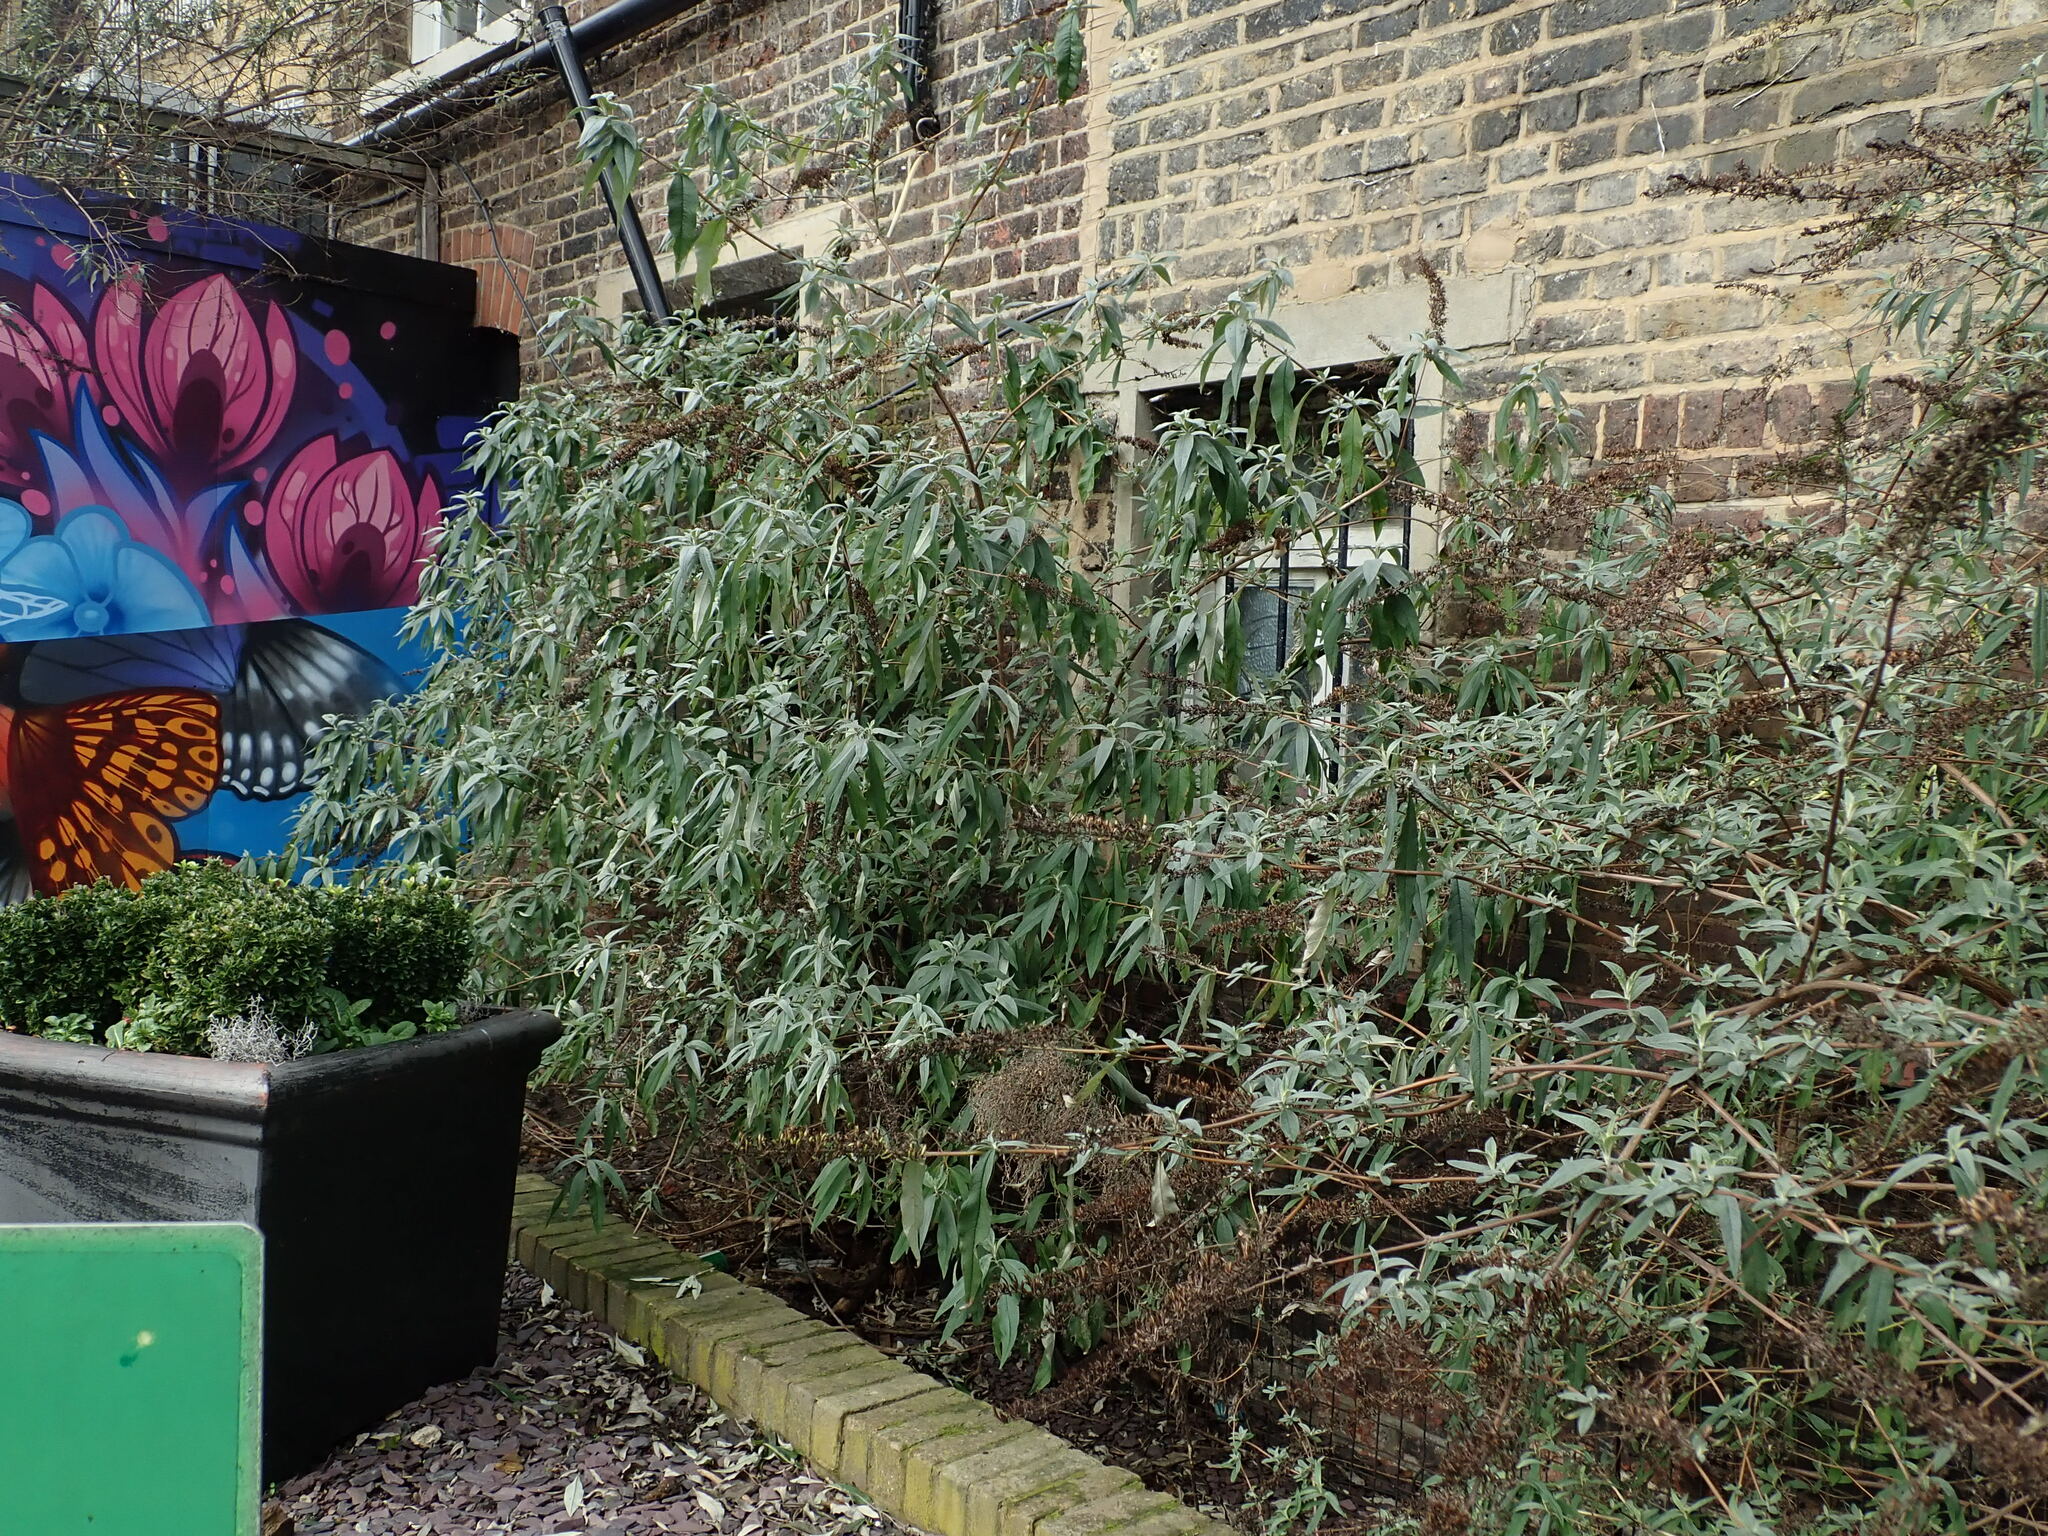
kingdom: Plantae
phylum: Tracheophyta
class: Magnoliopsida
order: Lamiales
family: Scrophulariaceae
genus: Buddleja
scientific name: Buddleja davidii
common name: Butterfly-bush
